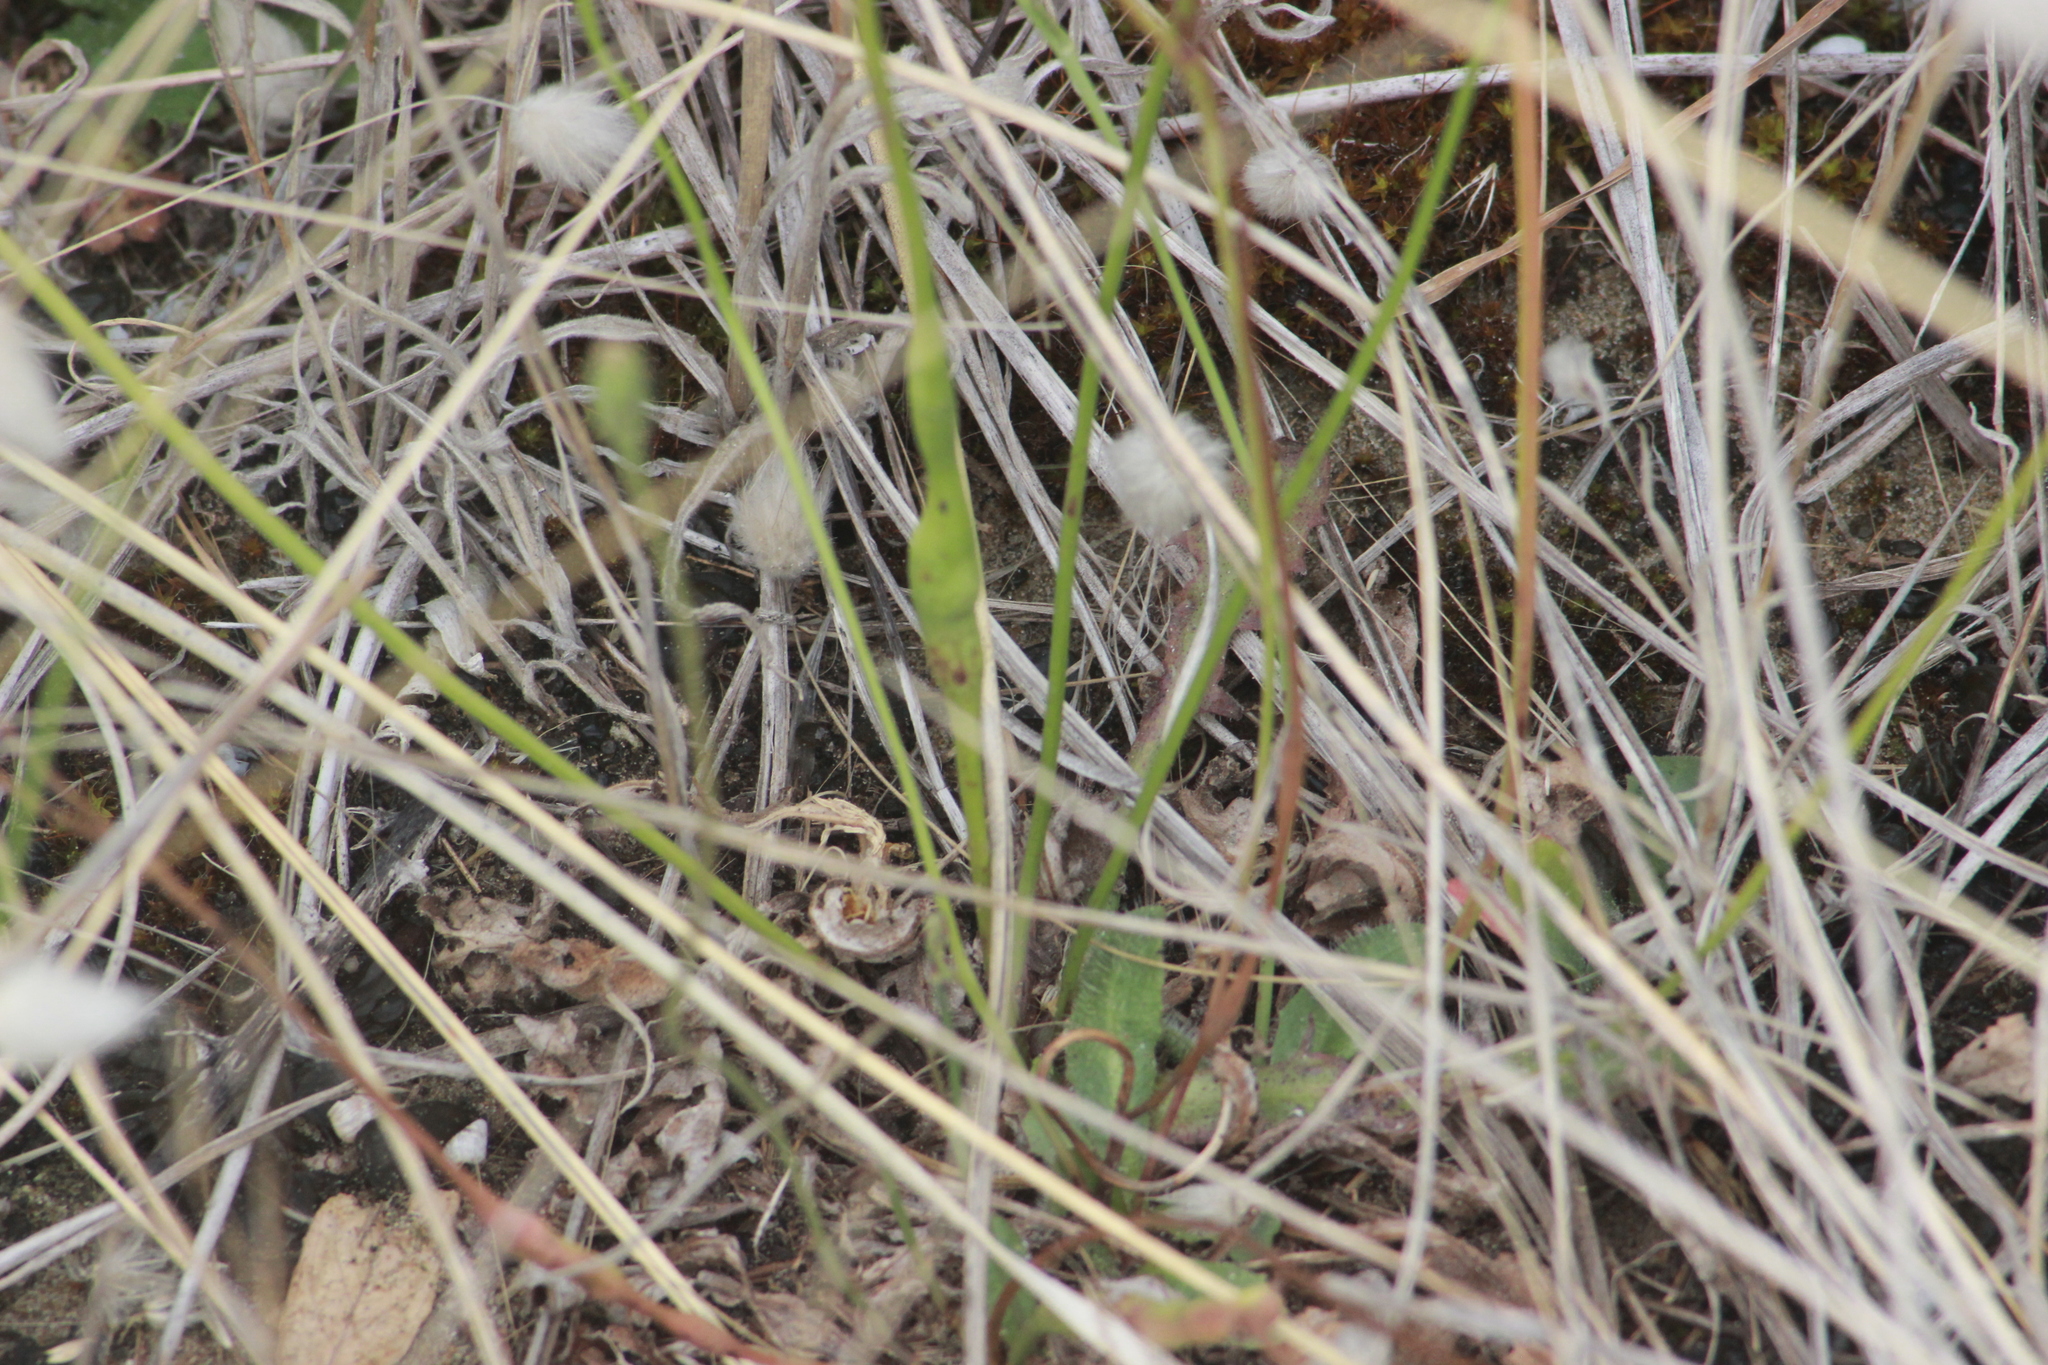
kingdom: Animalia
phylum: Arthropoda
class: Insecta
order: Hymenoptera
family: Cynipidae
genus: Phanacis
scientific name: Phanacis hypochoeridis
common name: Gall wasp
